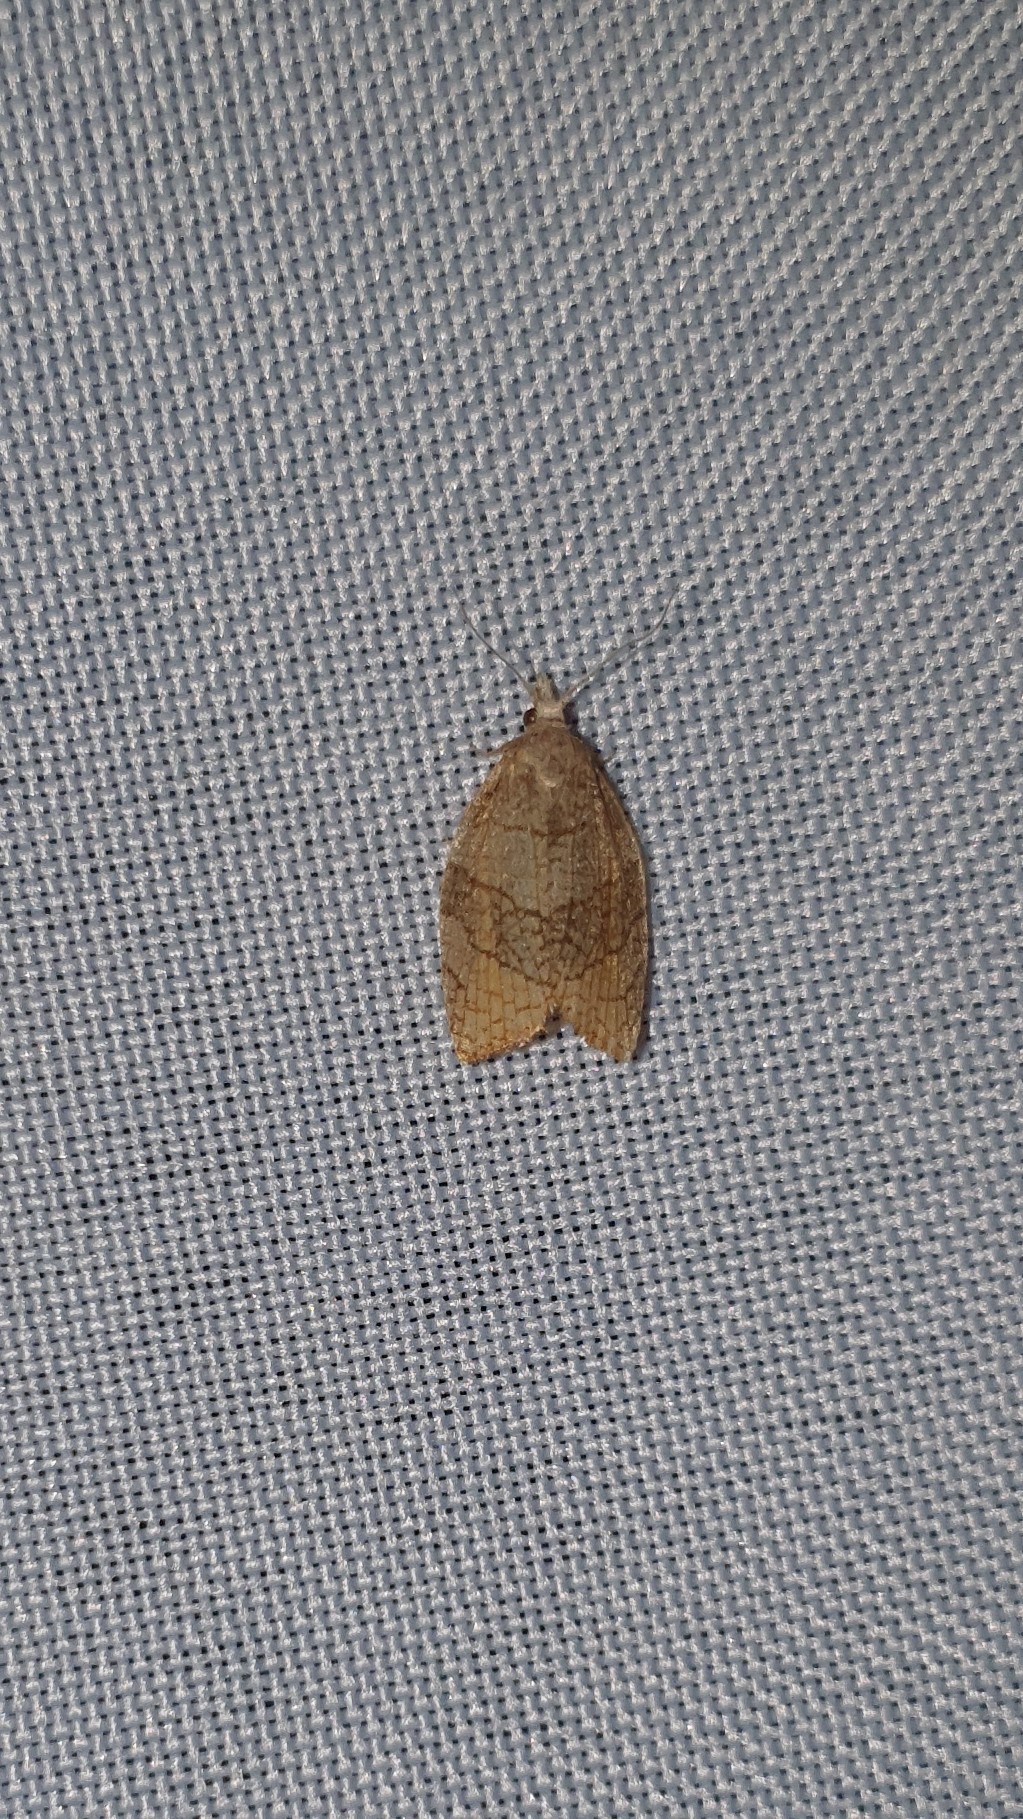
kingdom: Animalia
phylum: Arthropoda
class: Insecta
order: Lepidoptera
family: Tortricidae
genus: Pandemis
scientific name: Pandemis corylana
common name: Chequered fruit-tree tortrix
